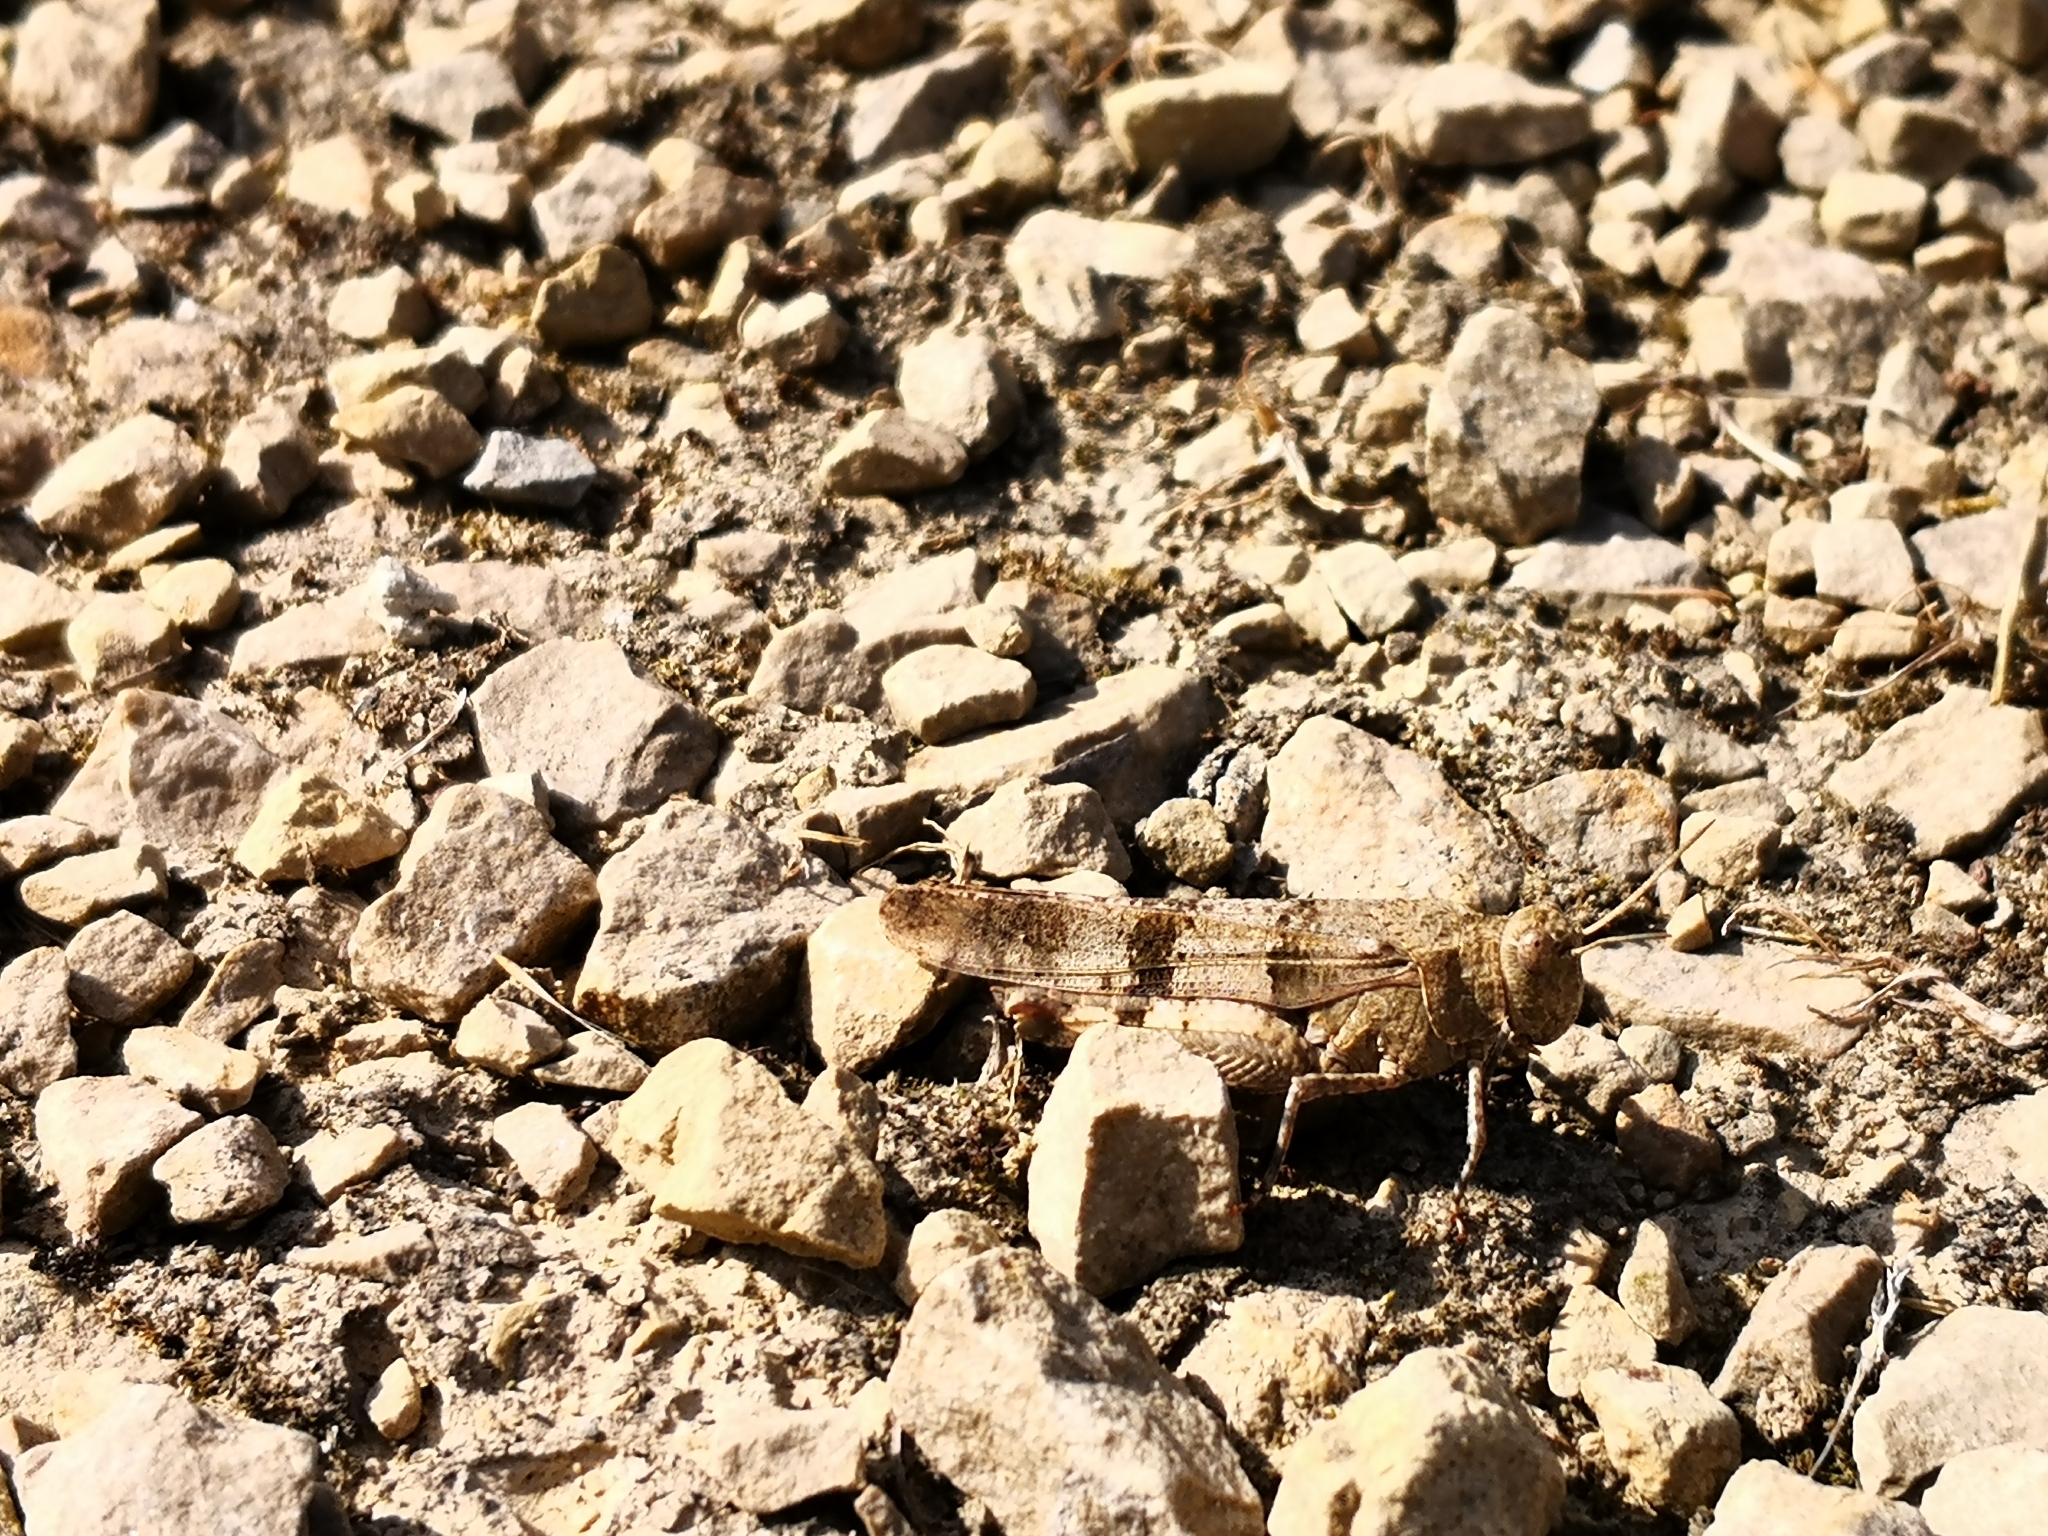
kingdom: Animalia
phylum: Arthropoda
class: Insecta
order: Orthoptera
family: Acrididae
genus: Oedipoda
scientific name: Oedipoda caerulescens
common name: Blue-winged grasshopper
